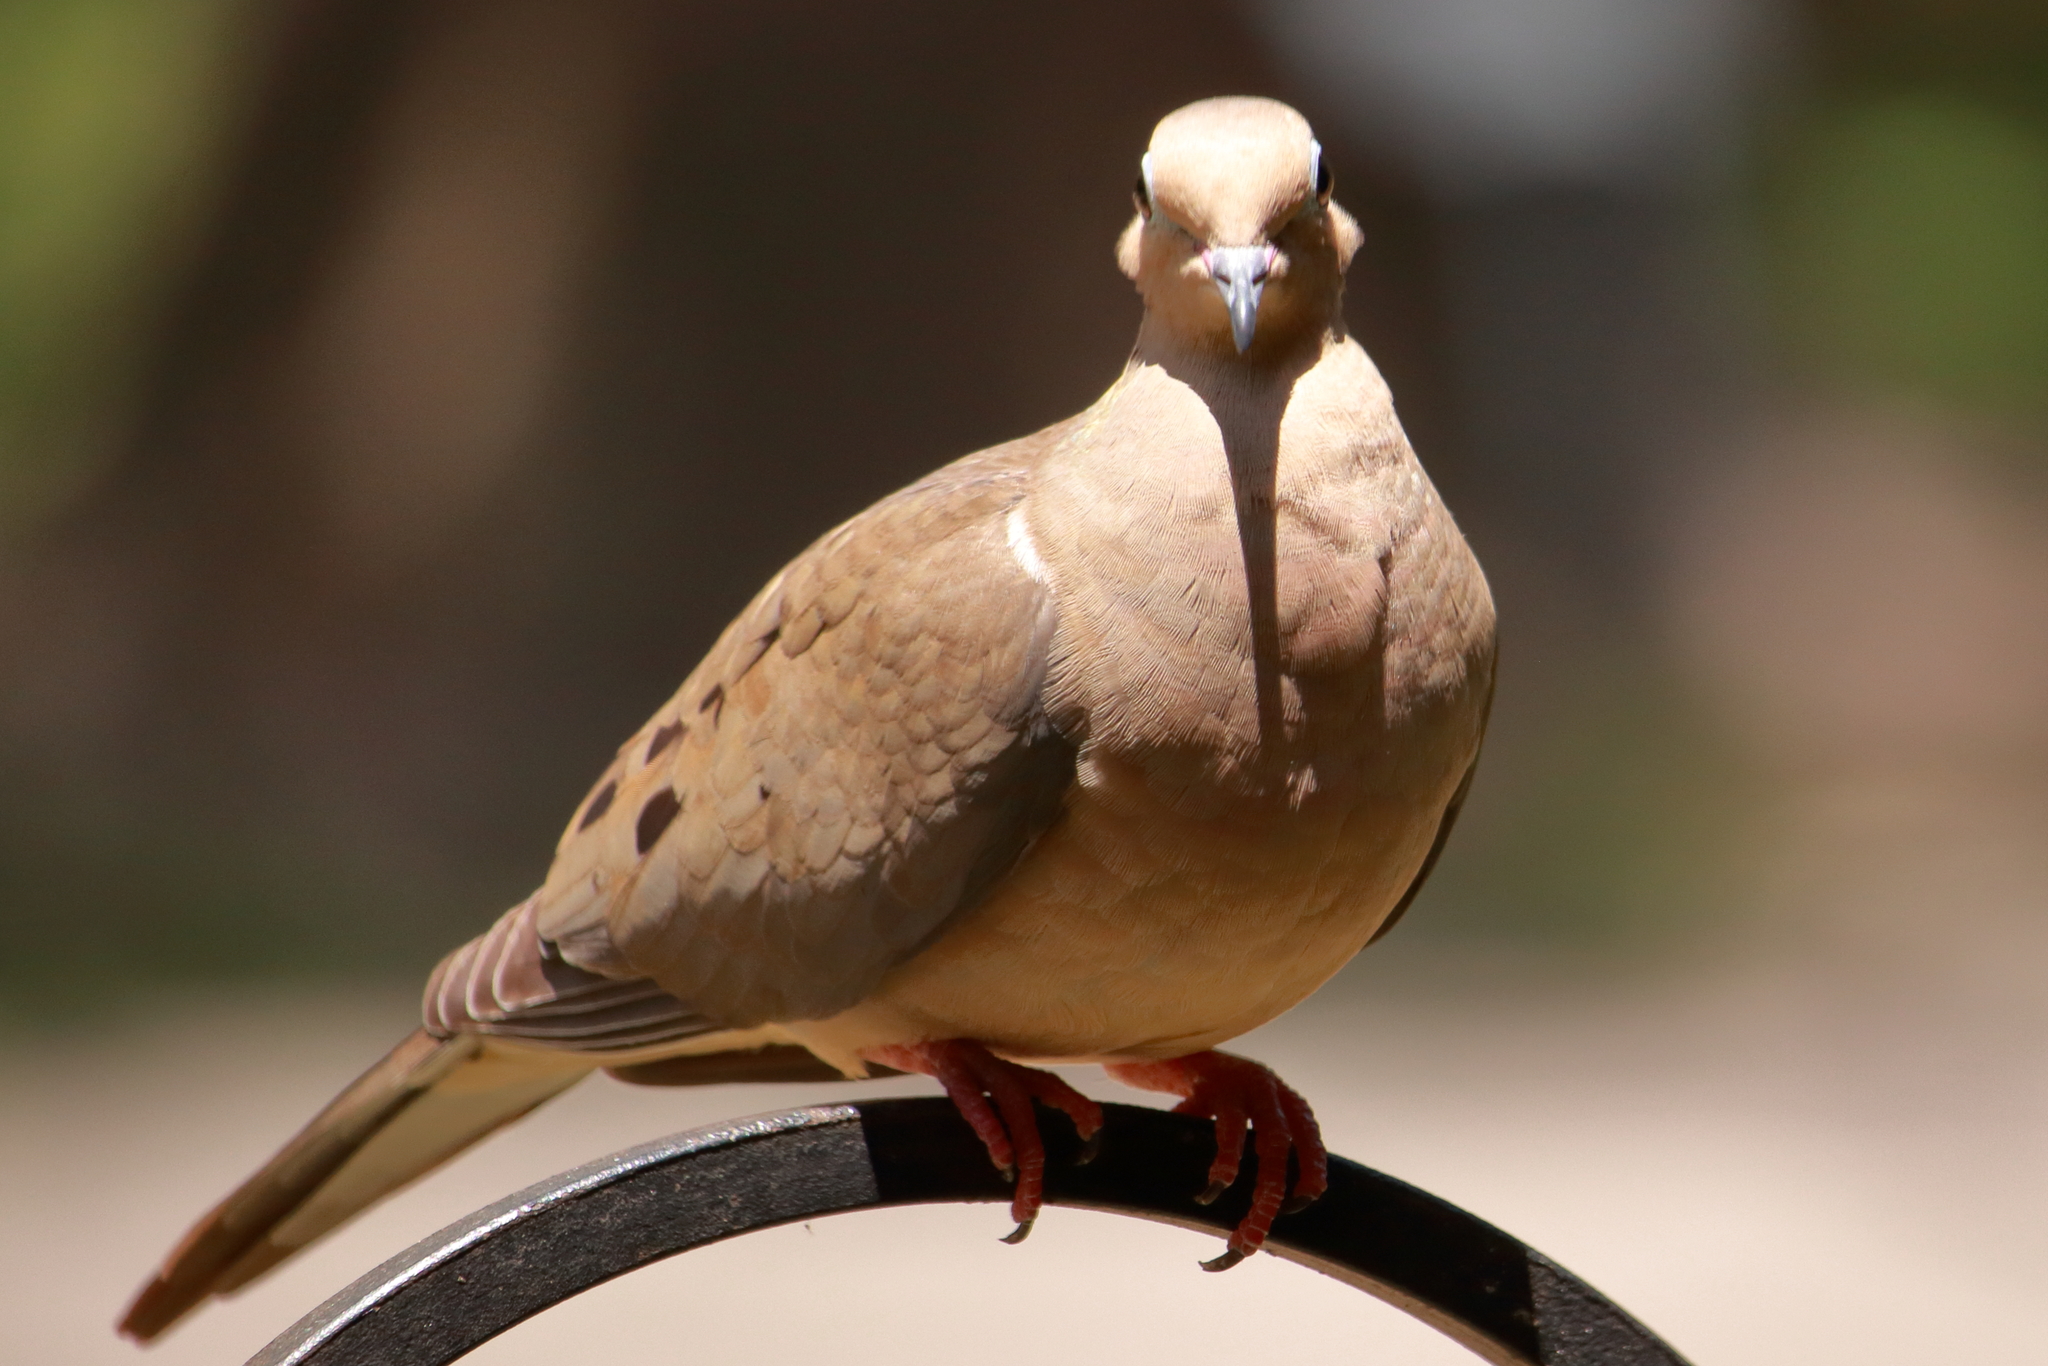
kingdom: Animalia
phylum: Chordata
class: Aves
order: Columbiformes
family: Columbidae
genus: Zenaida
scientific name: Zenaida macroura
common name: Mourning dove
